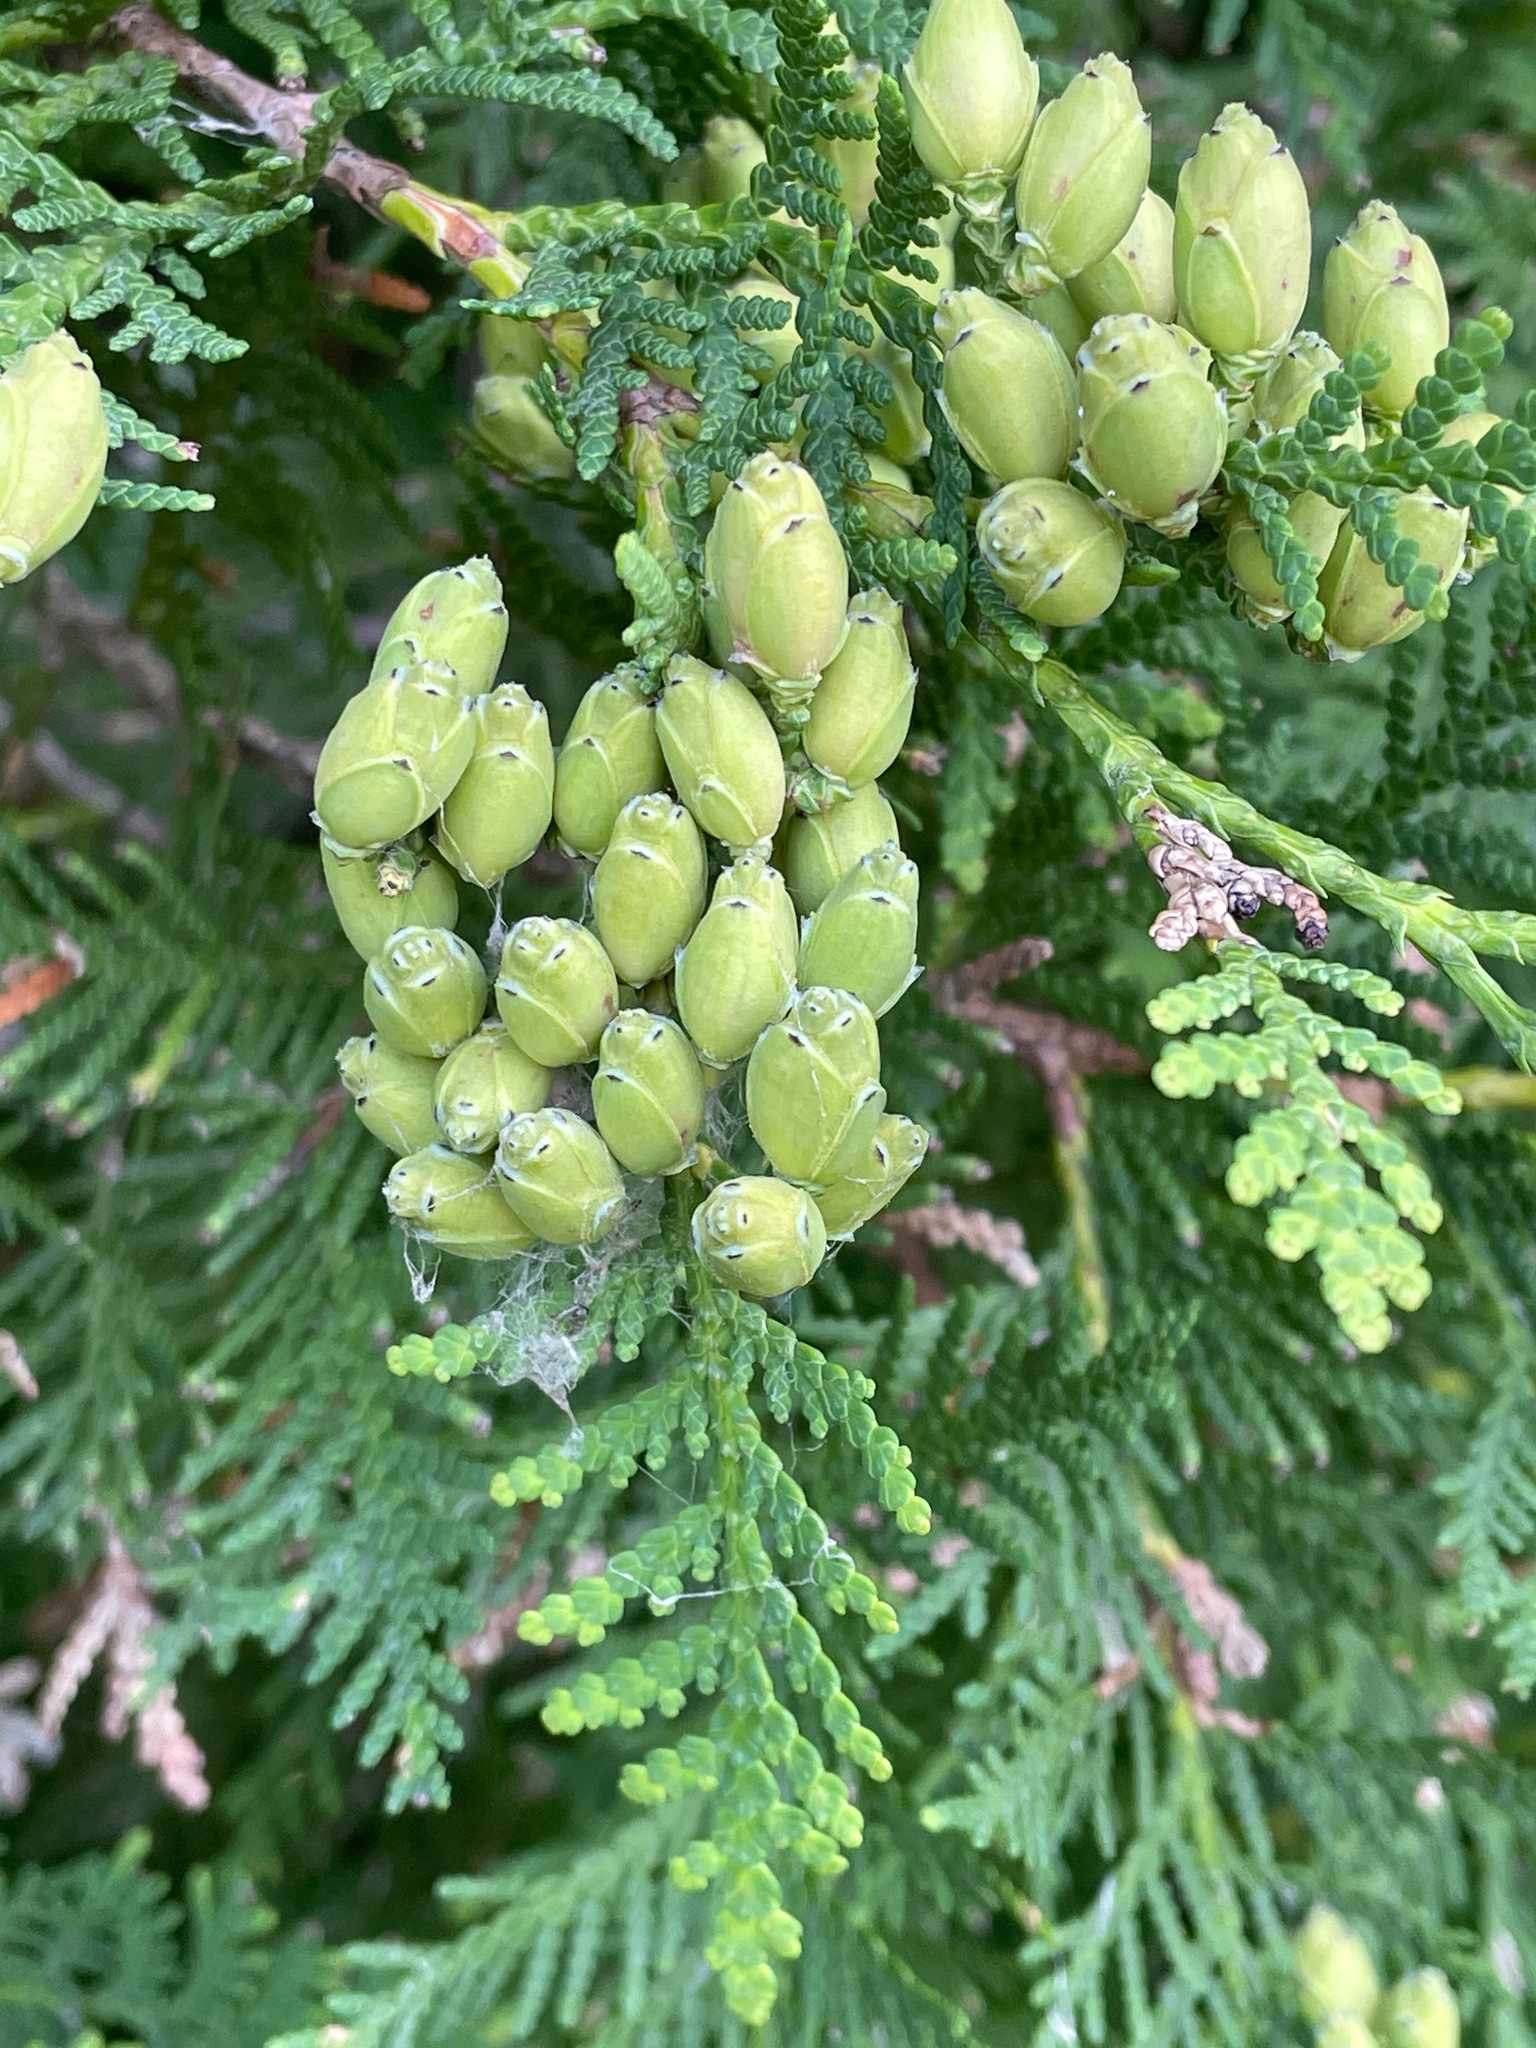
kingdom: Plantae
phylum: Tracheophyta
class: Pinopsida
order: Pinales
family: Cupressaceae
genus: Thuja
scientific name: Thuja occidentalis
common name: Northern white-cedar
